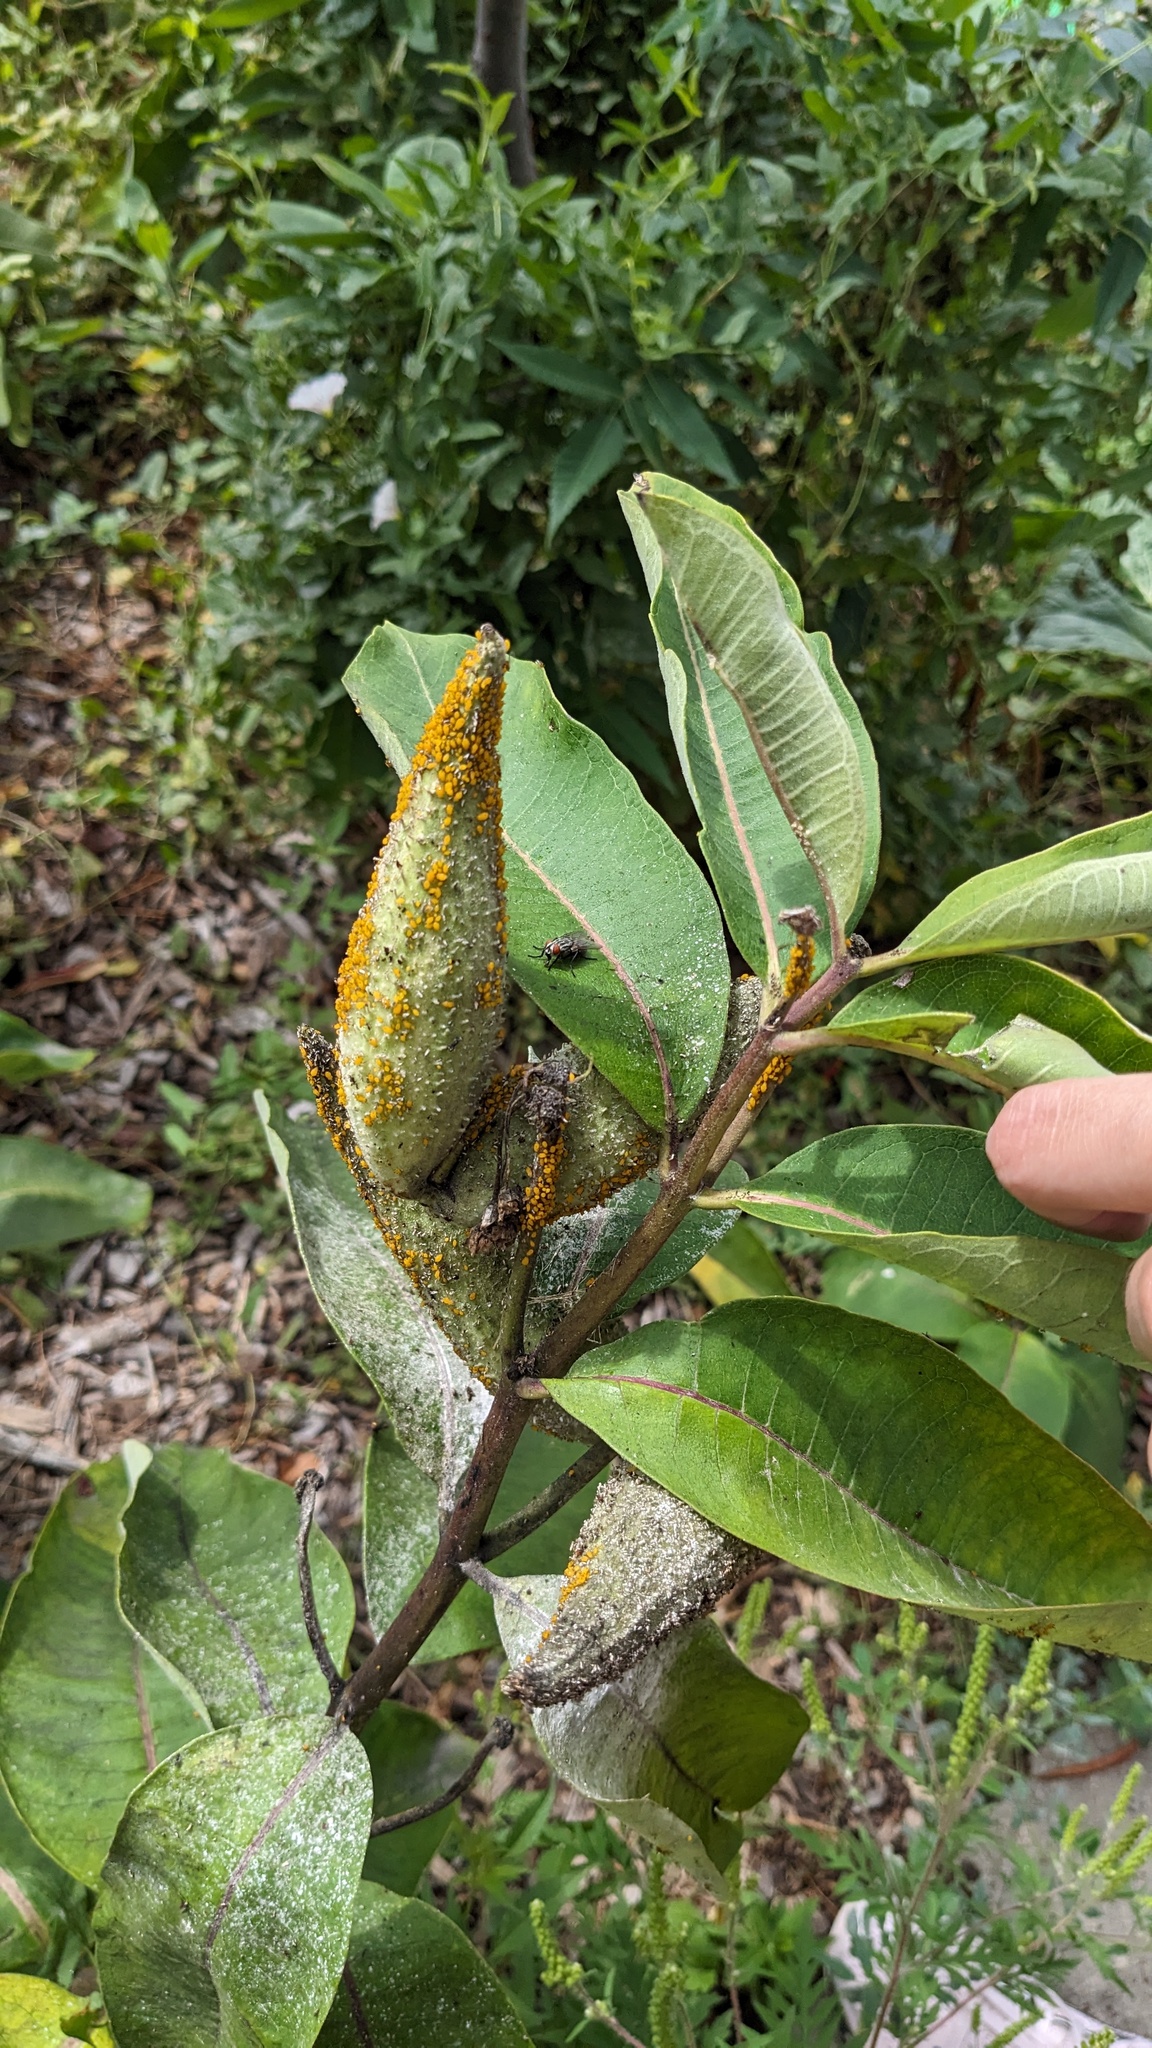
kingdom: Animalia
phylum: Arthropoda
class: Insecta
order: Hemiptera
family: Aphididae
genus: Aphis
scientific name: Aphis nerii
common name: Oleander aphid
